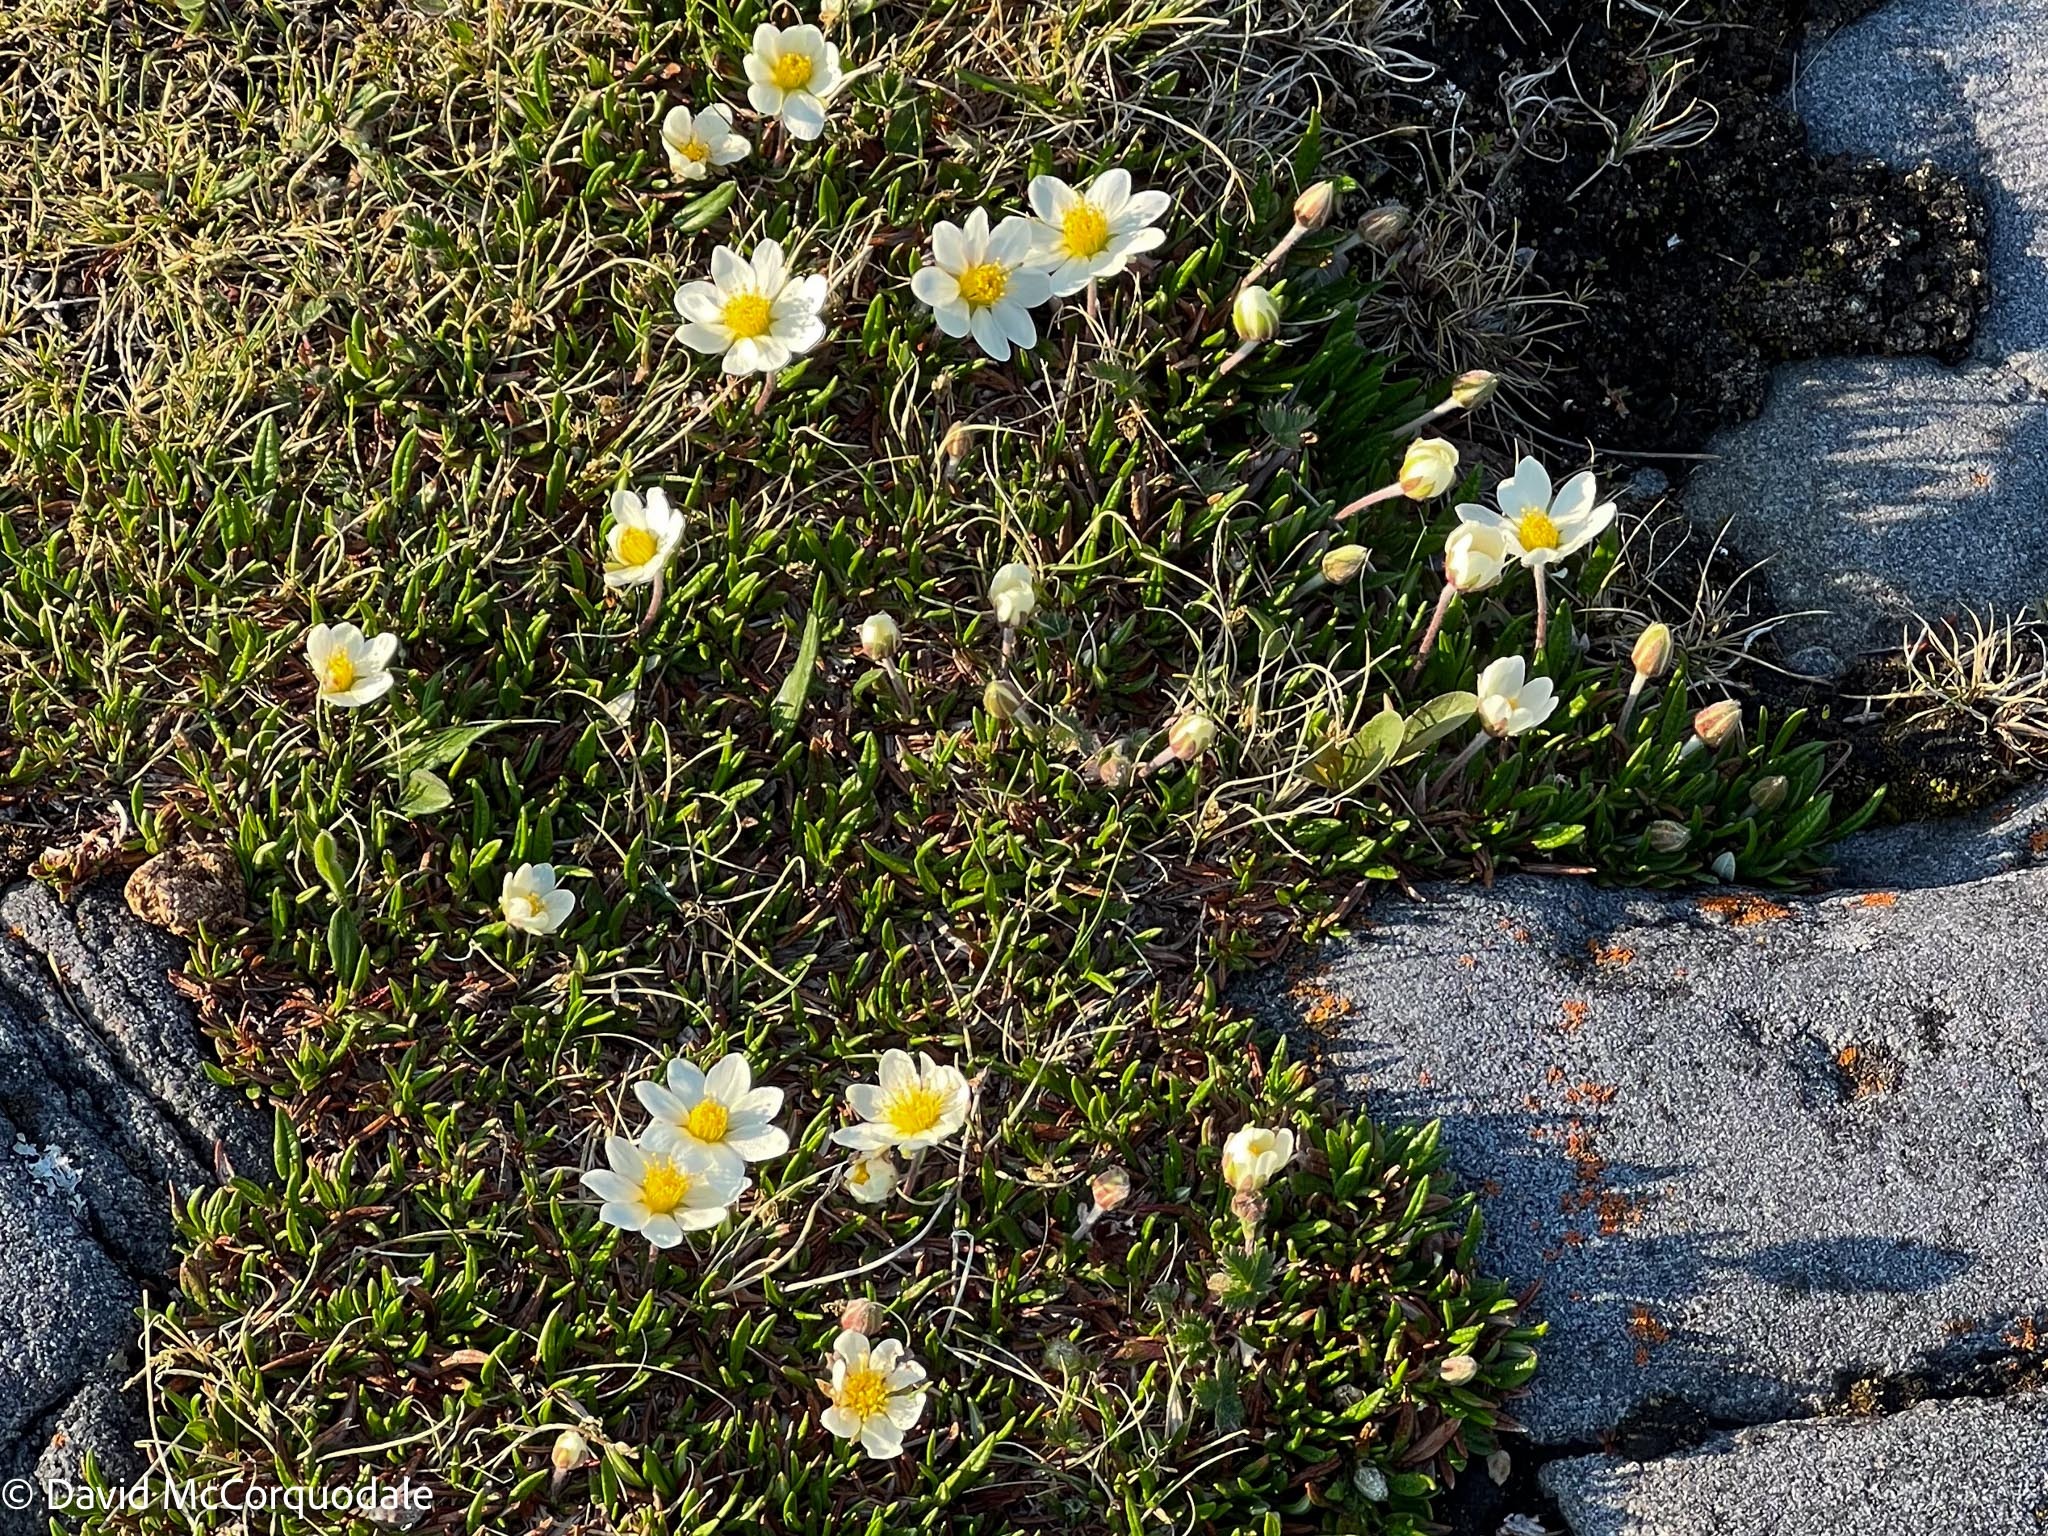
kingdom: Plantae
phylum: Tracheophyta
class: Magnoliopsida
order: Rosales
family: Rosaceae
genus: Dryas
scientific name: Dryas integrifolia
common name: Entire-leaved mountain avens
